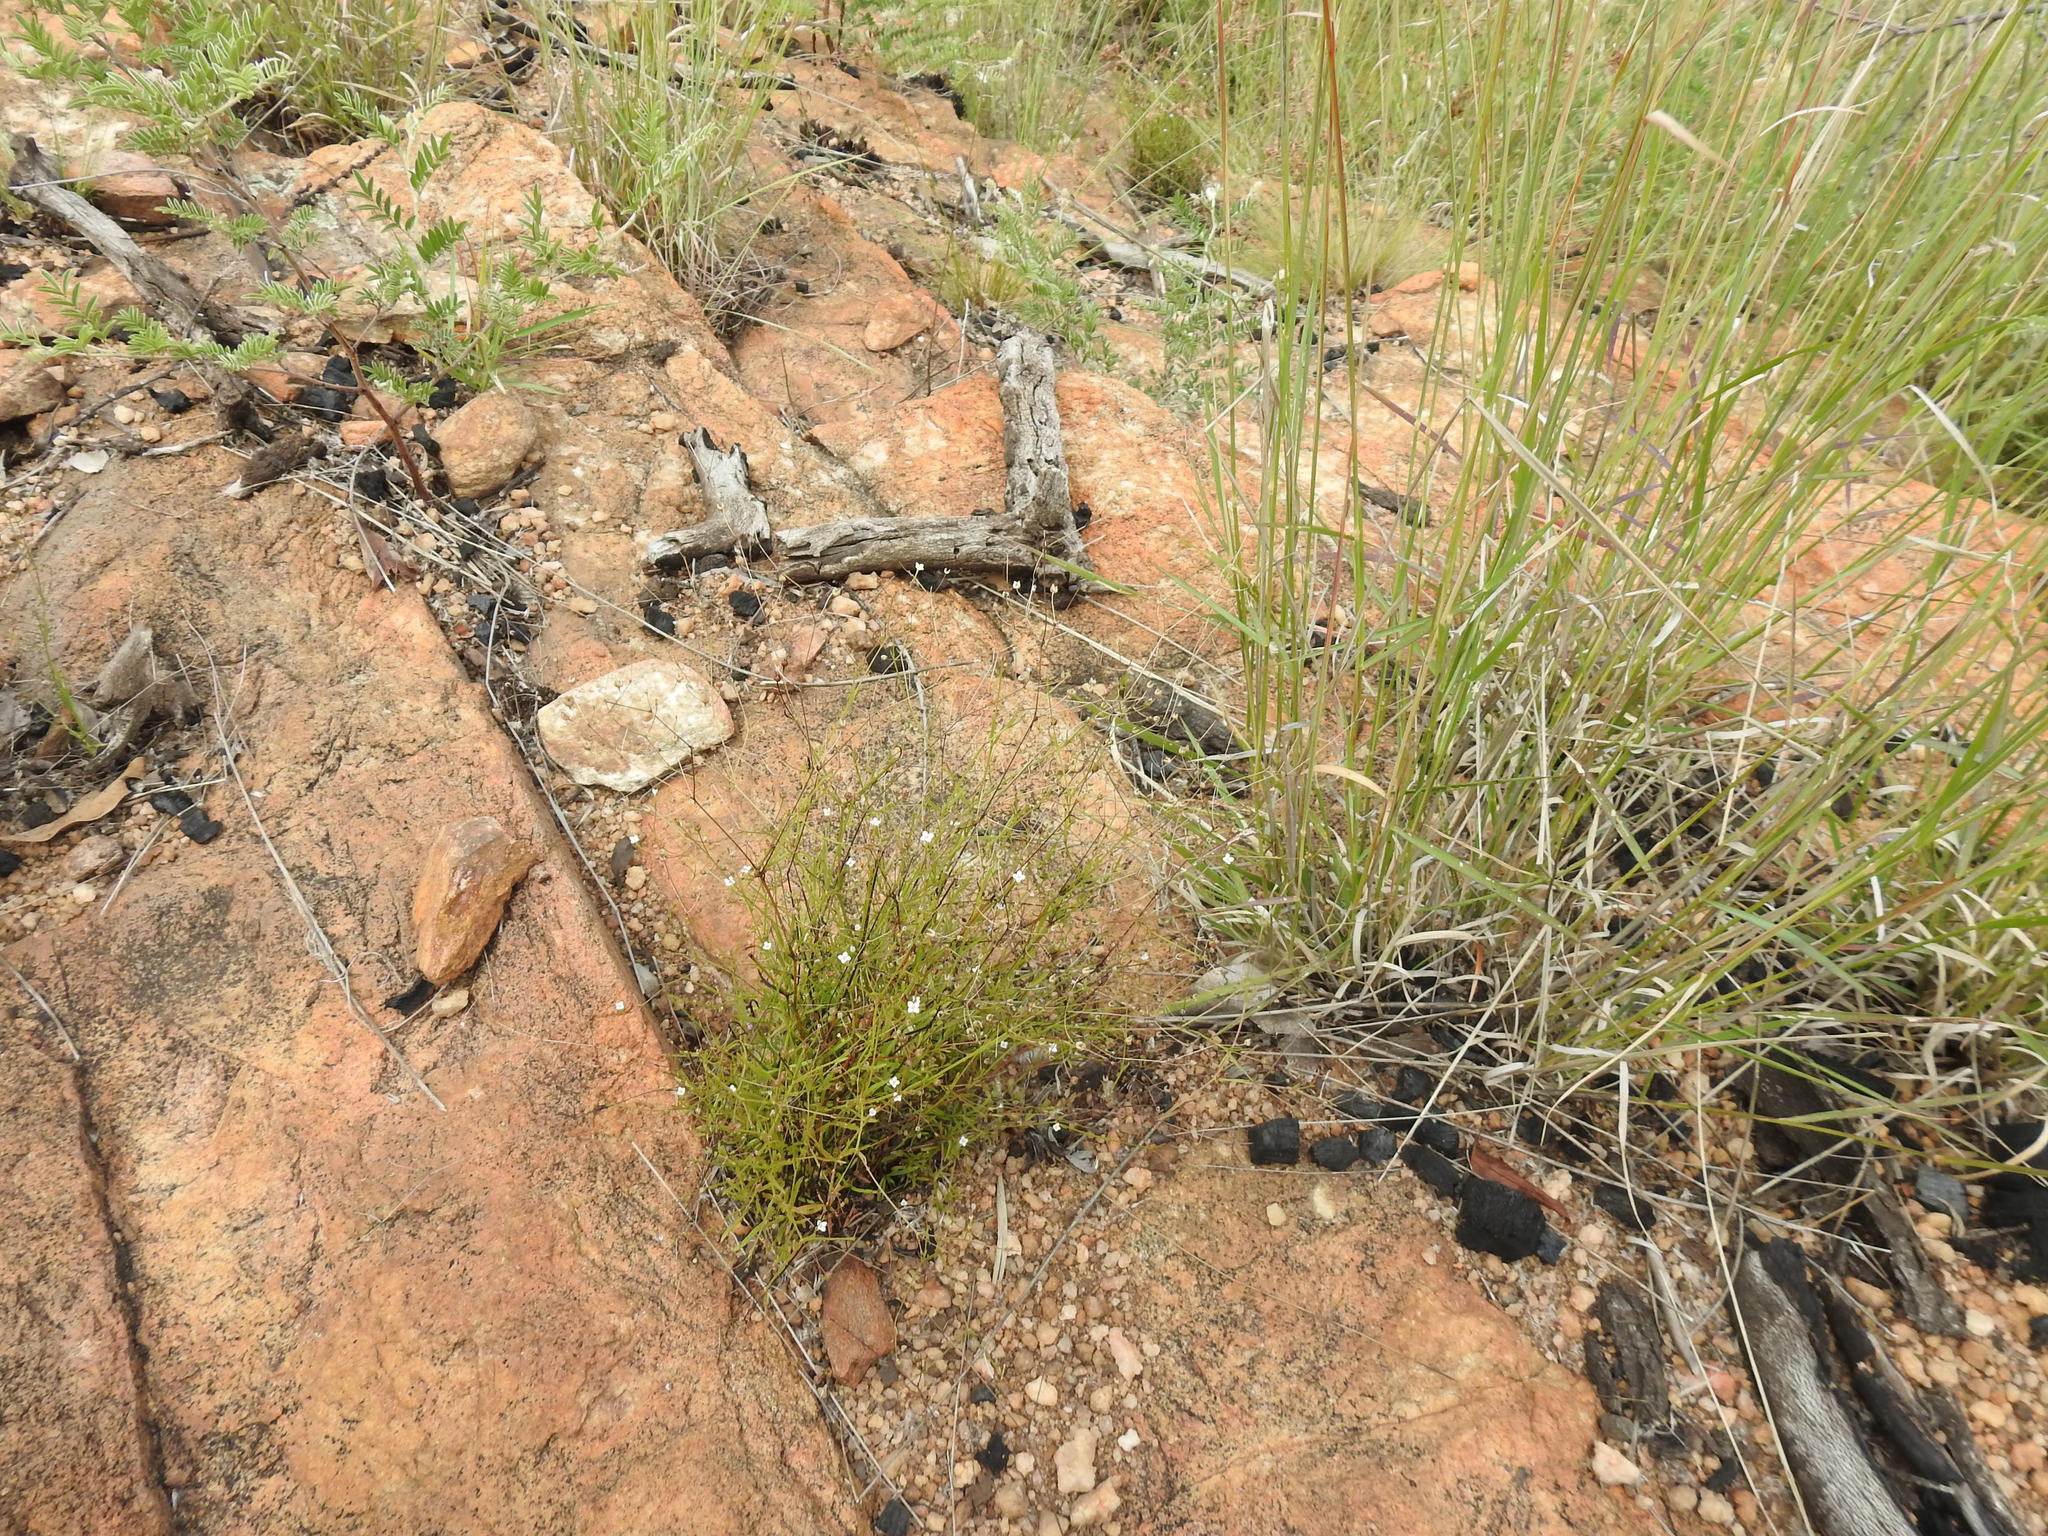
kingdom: Plantae
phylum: Tracheophyta
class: Magnoliopsida
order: Gentianales
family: Rubiaceae
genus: Oldenlandia
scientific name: Oldenlandia herbacea
